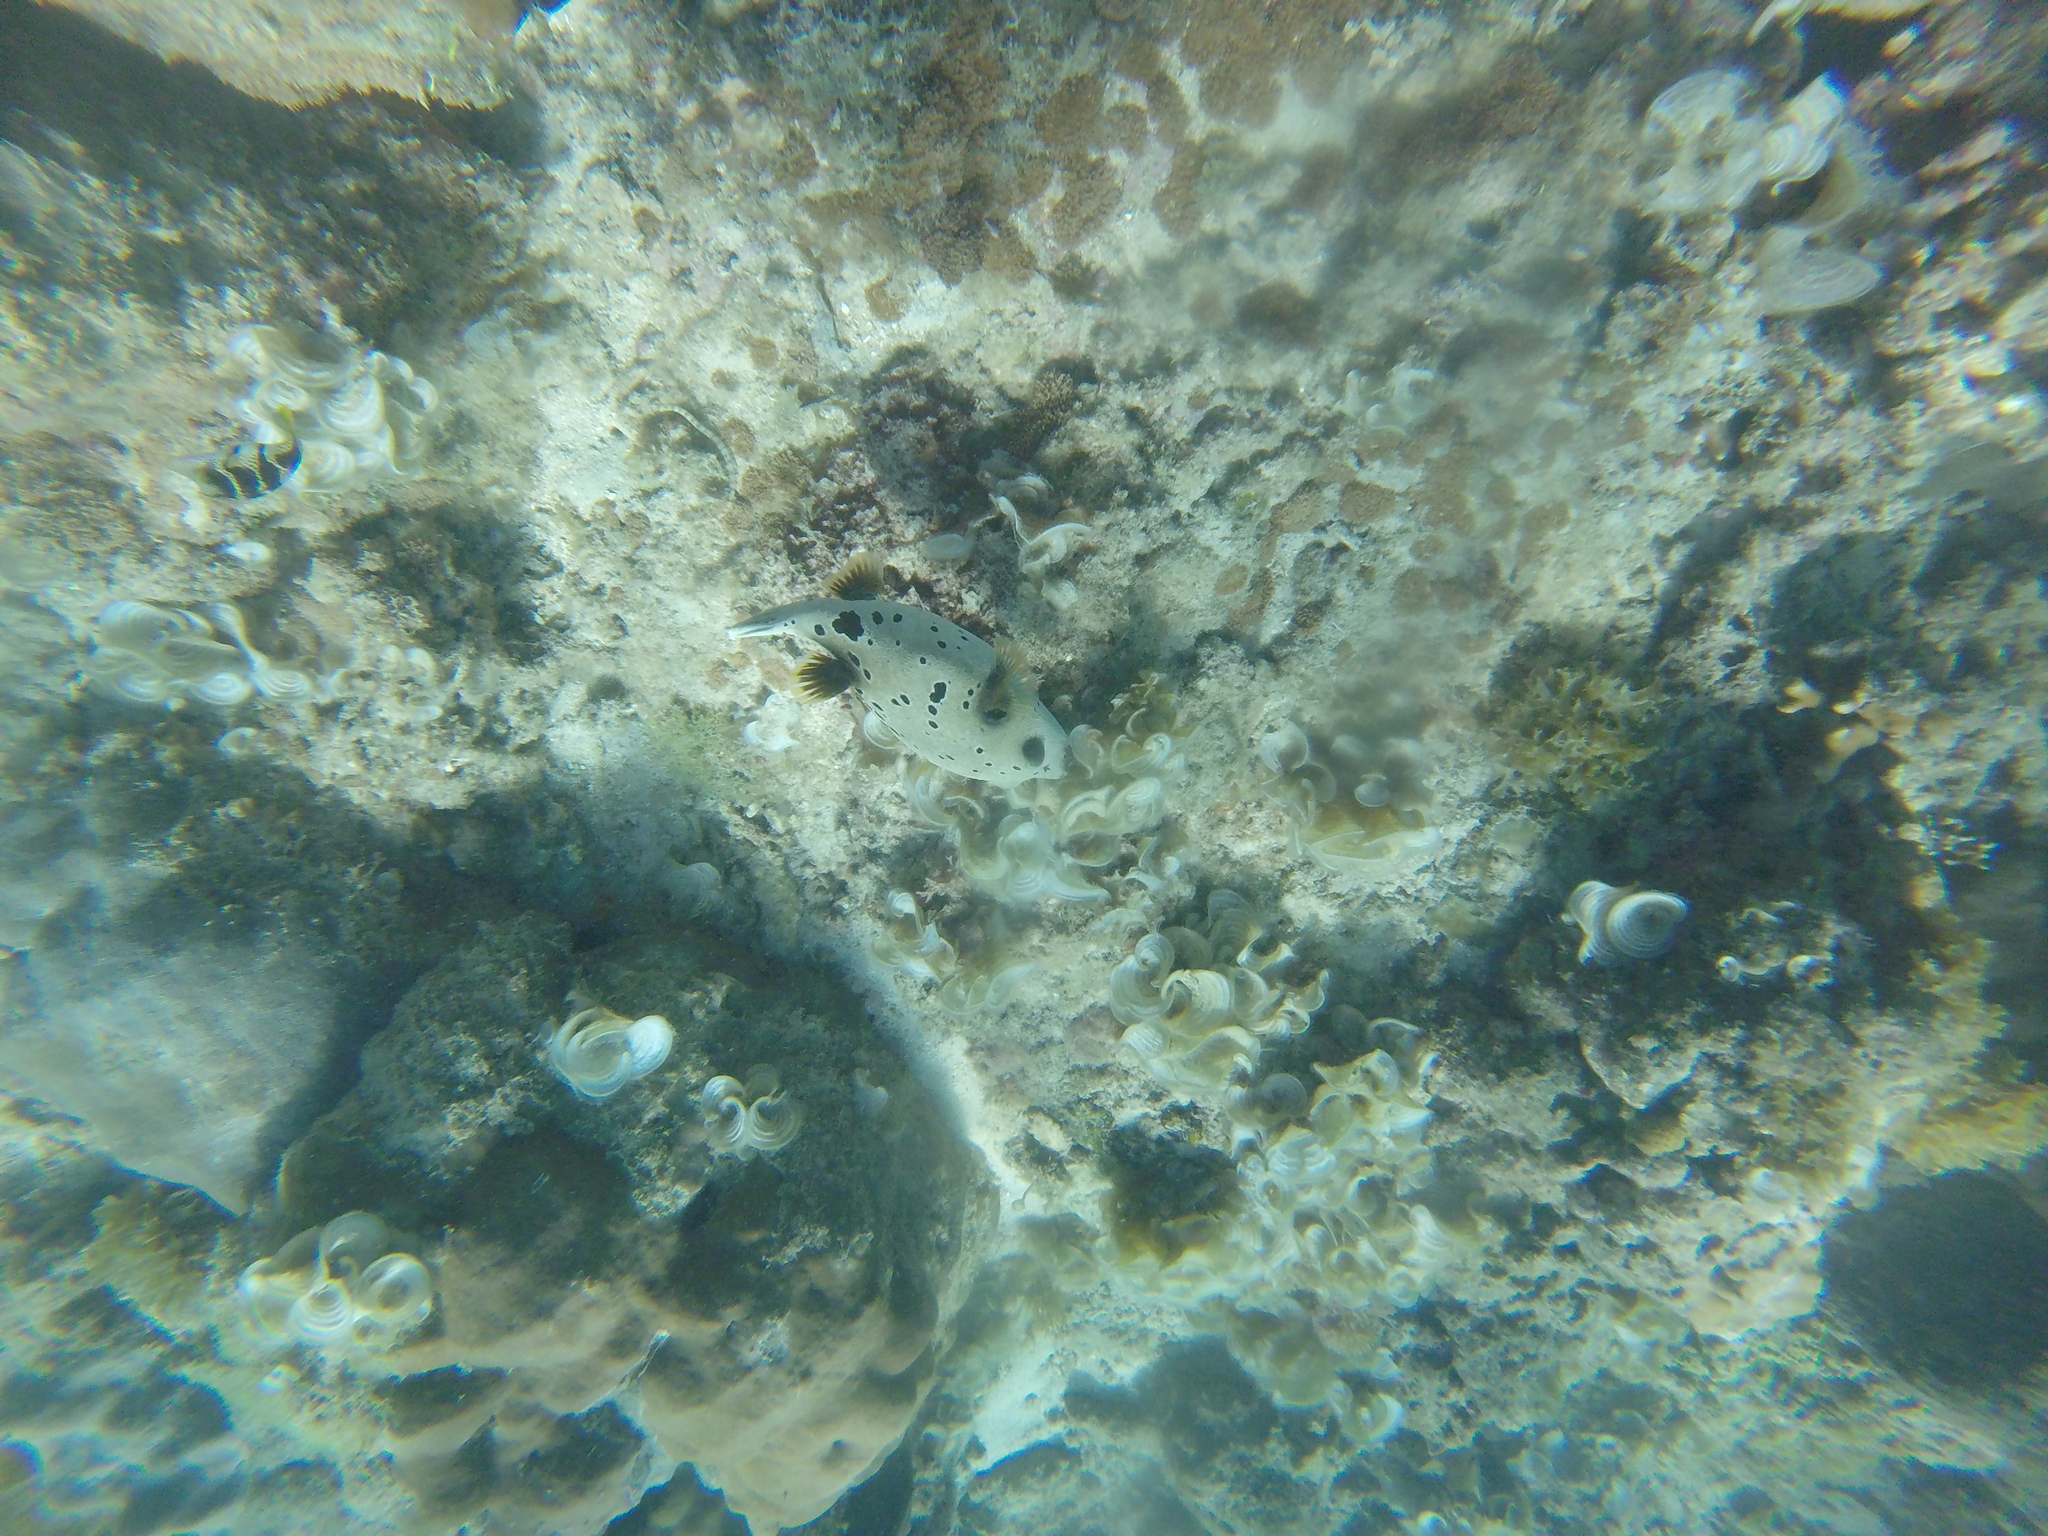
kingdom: Animalia
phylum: Chordata
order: Tetraodontiformes
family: Tetraodontidae
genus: Arothron
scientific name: Arothron nigropunctatus
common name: Black spotted blow fish
